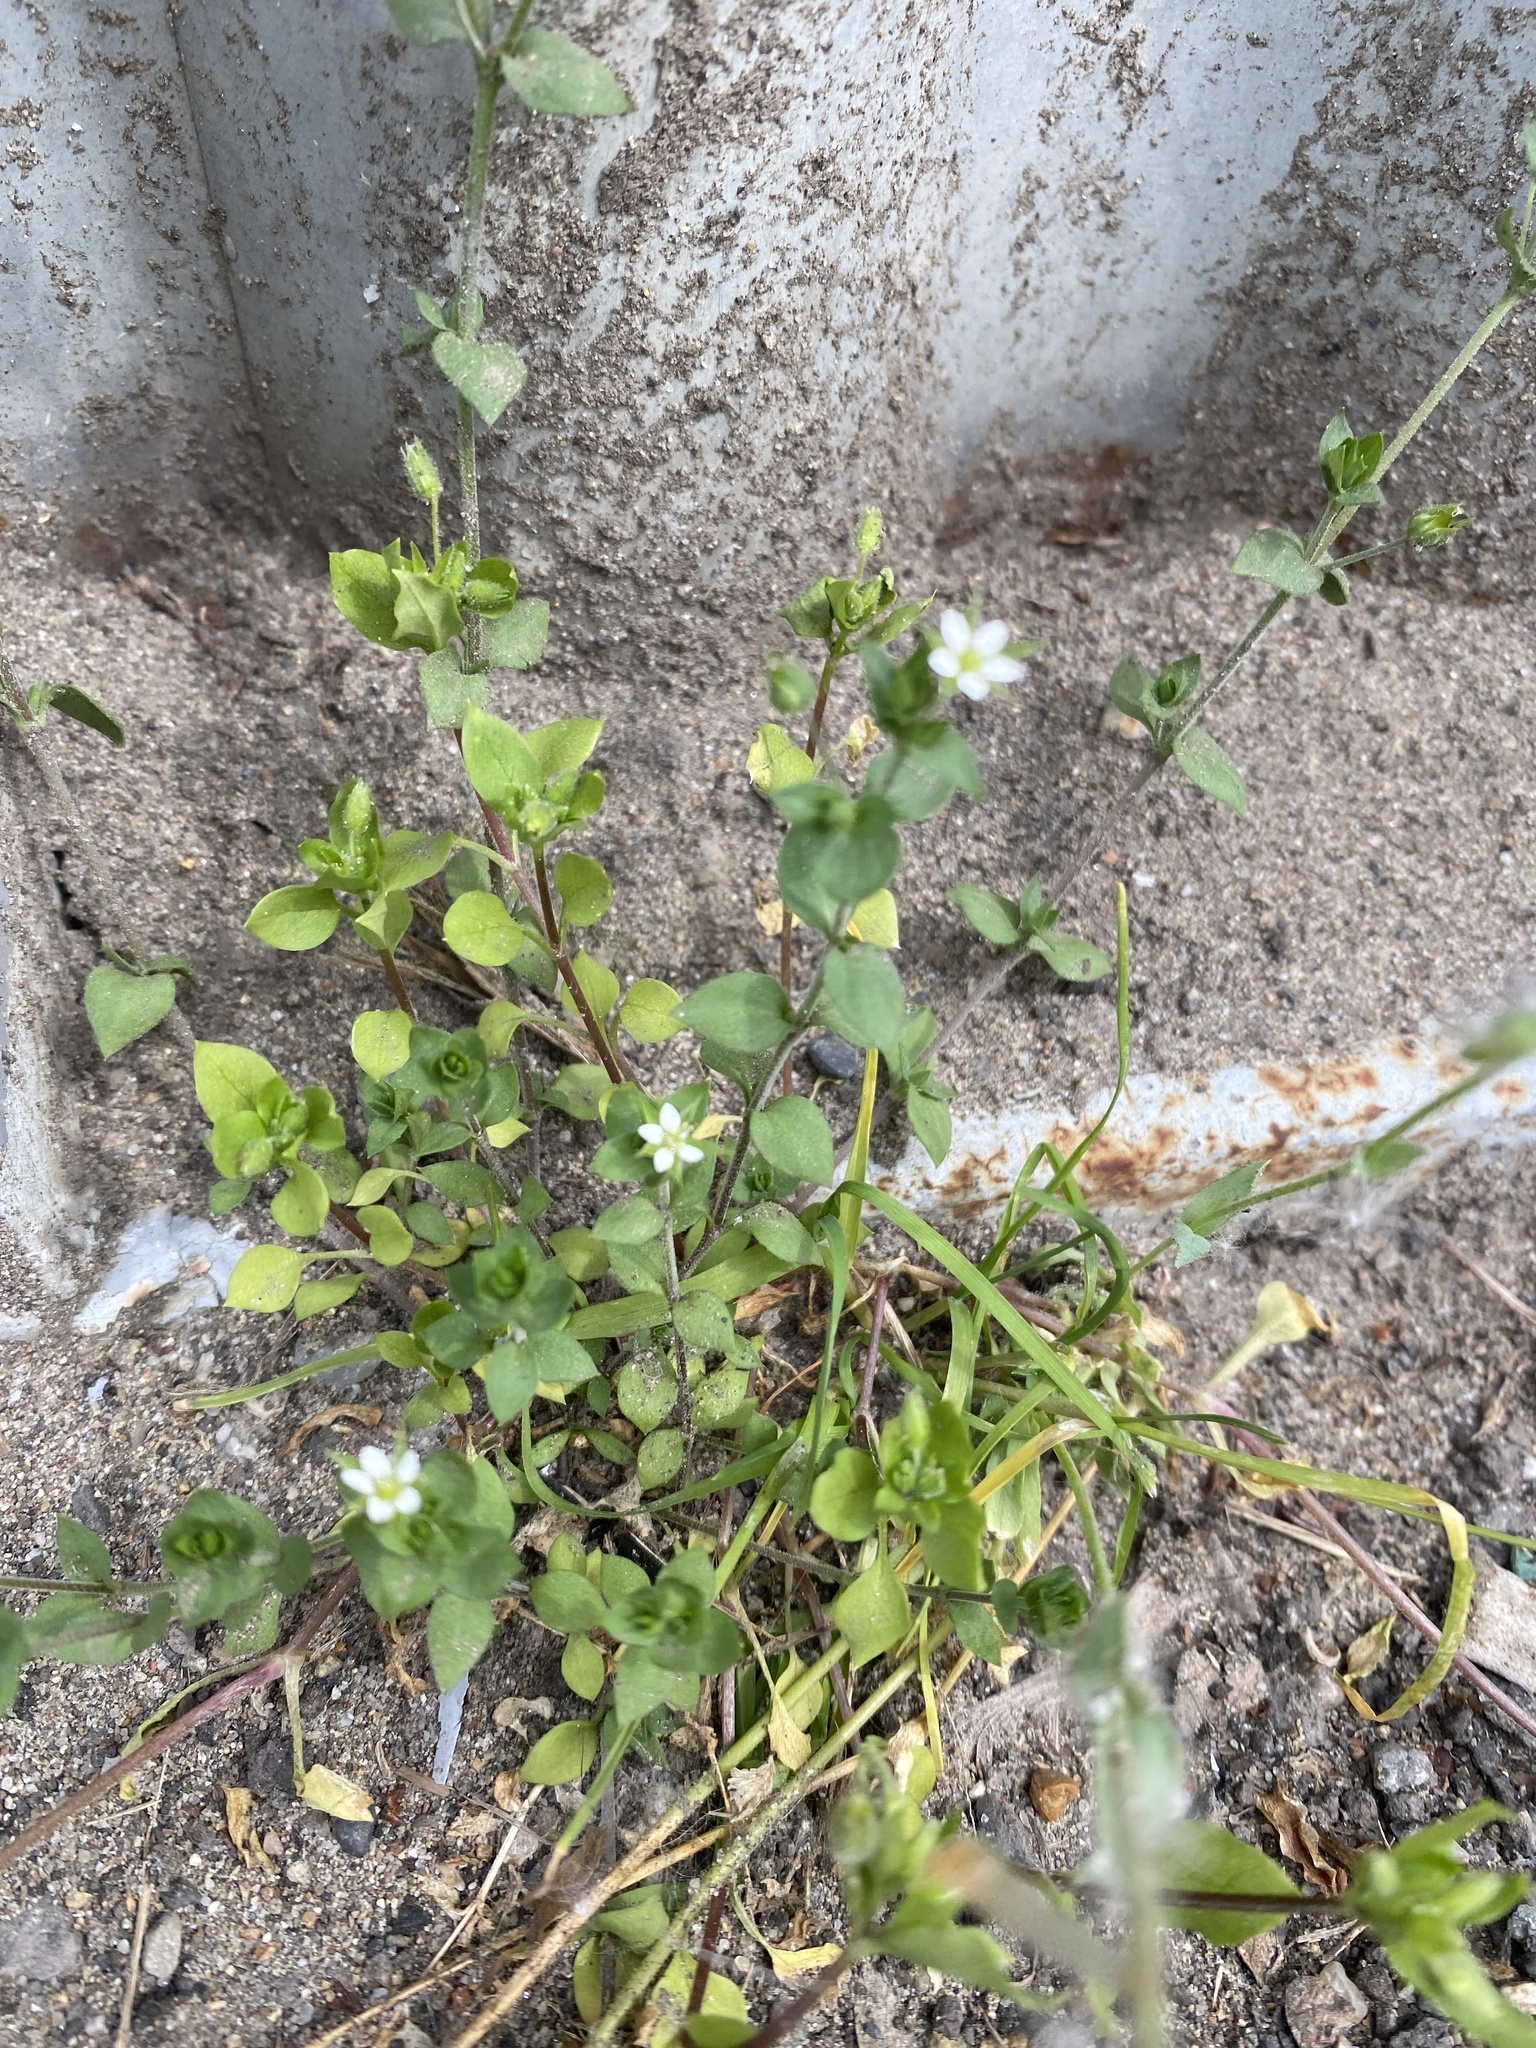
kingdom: Plantae
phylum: Tracheophyta
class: Magnoliopsida
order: Caryophyllales
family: Caryophyllaceae
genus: Arenaria
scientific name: Arenaria serpyllifolia
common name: Thyme-leaved sandwort
